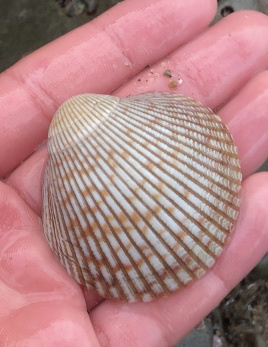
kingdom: Animalia
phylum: Mollusca
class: Bivalvia
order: Cardiida
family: Cardiidae
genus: Clinocardium
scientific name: Clinocardium nuttallii
